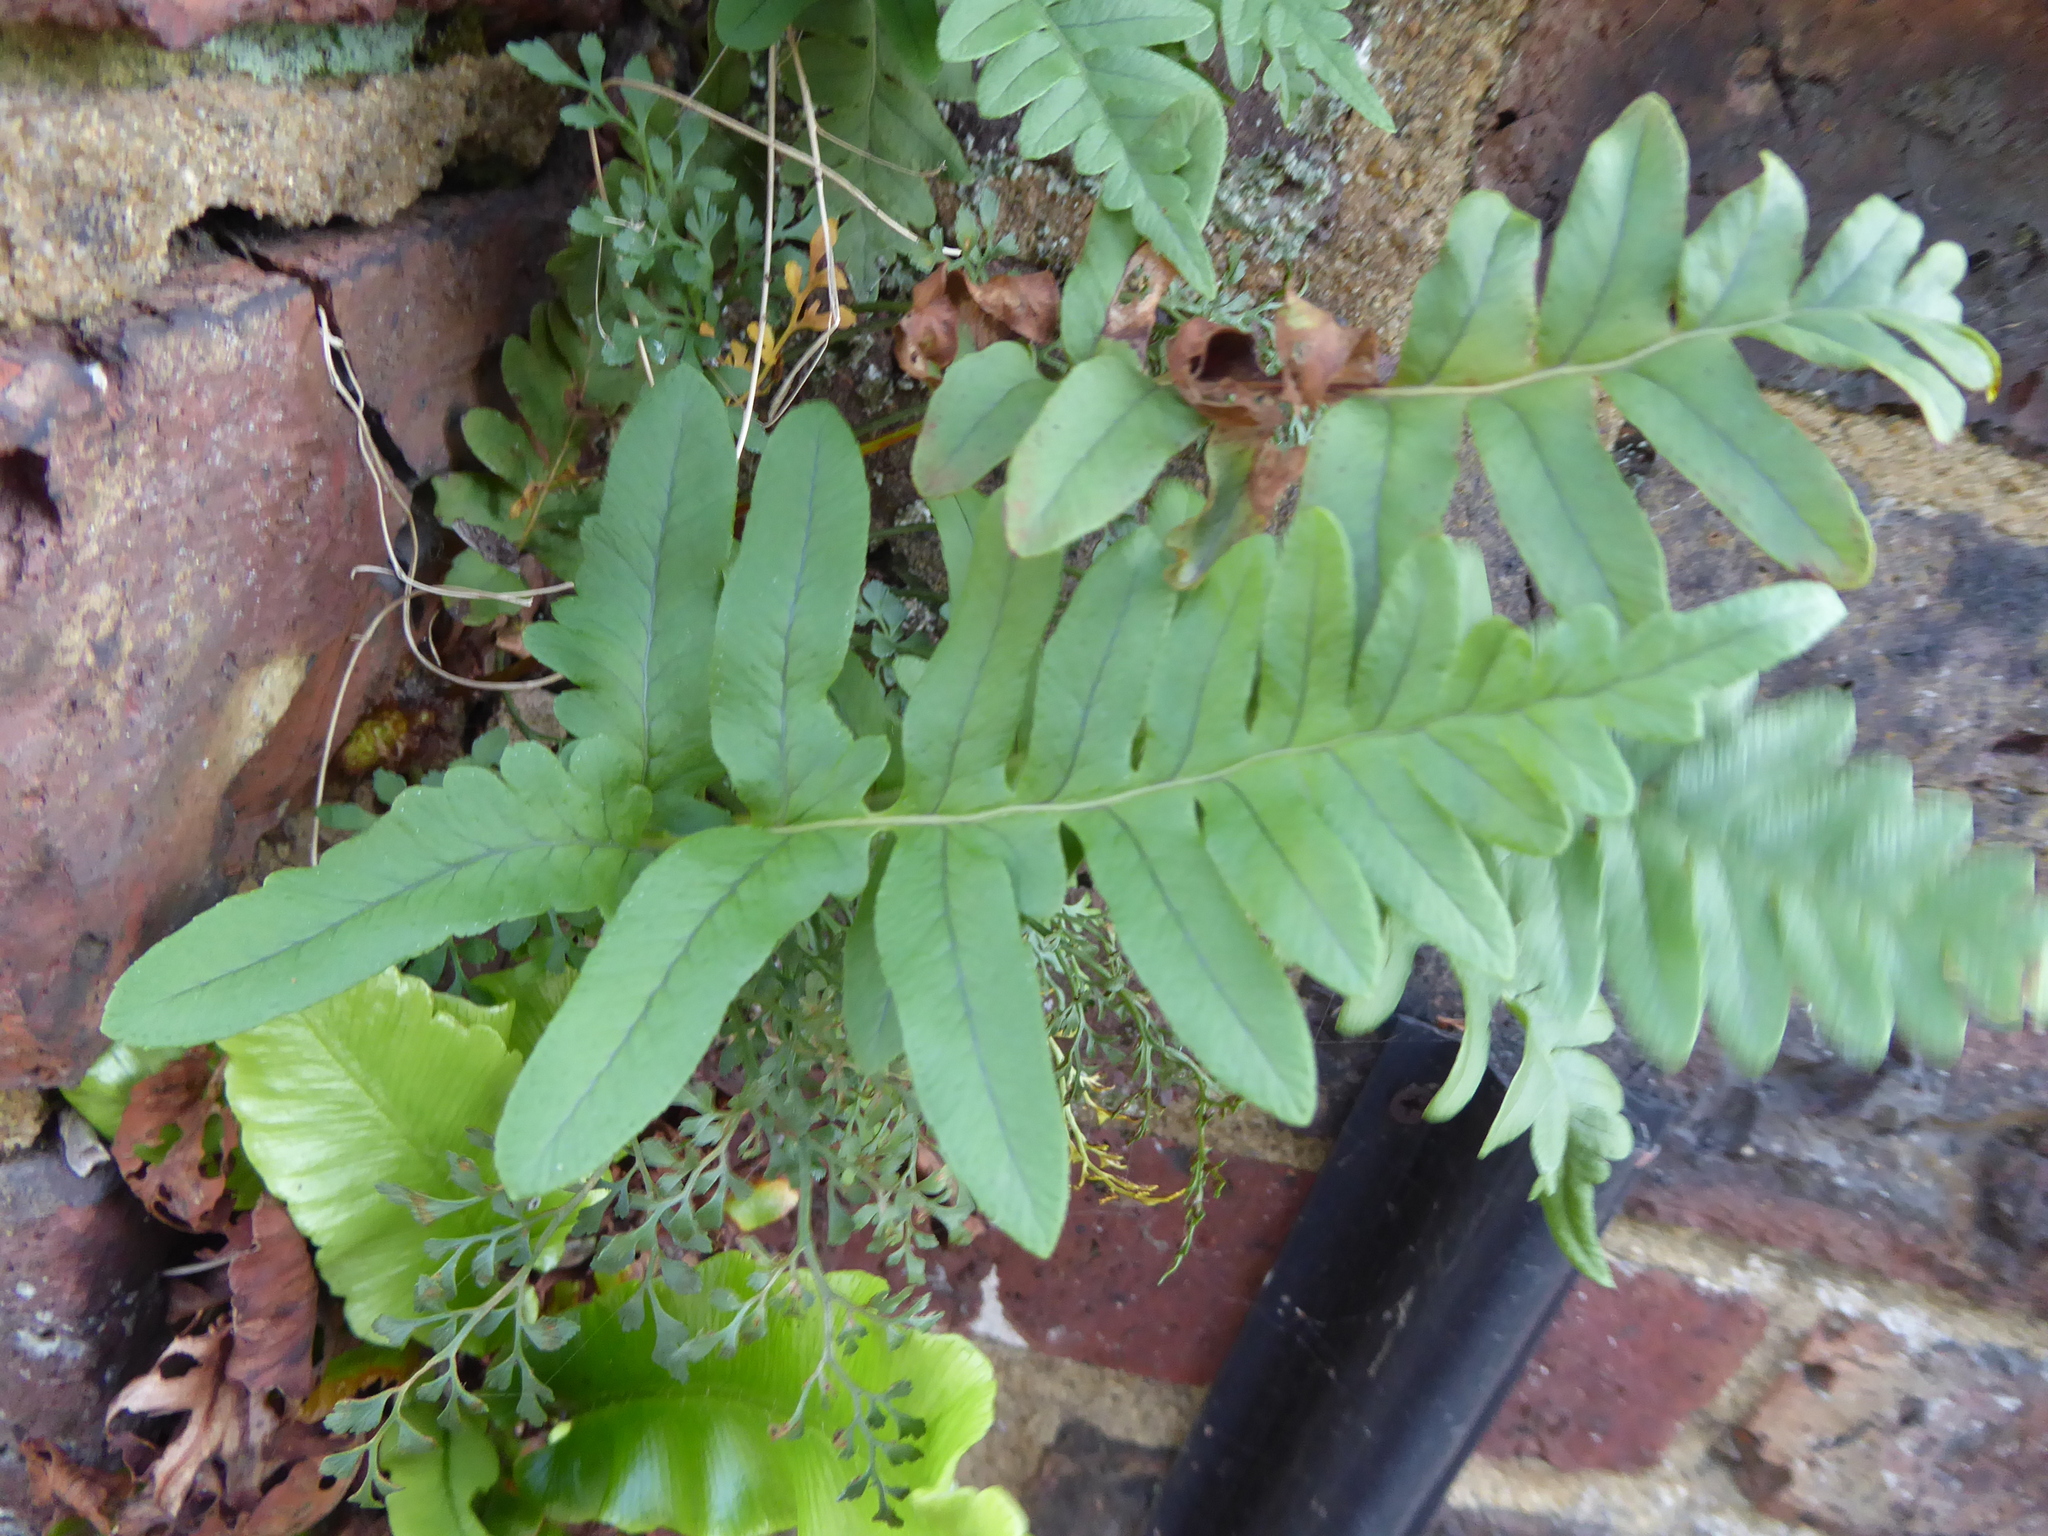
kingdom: Plantae
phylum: Tracheophyta
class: Polypodiopsida
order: Polypodiales
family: Polypodiaceae
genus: Polypodium
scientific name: Polypodium
